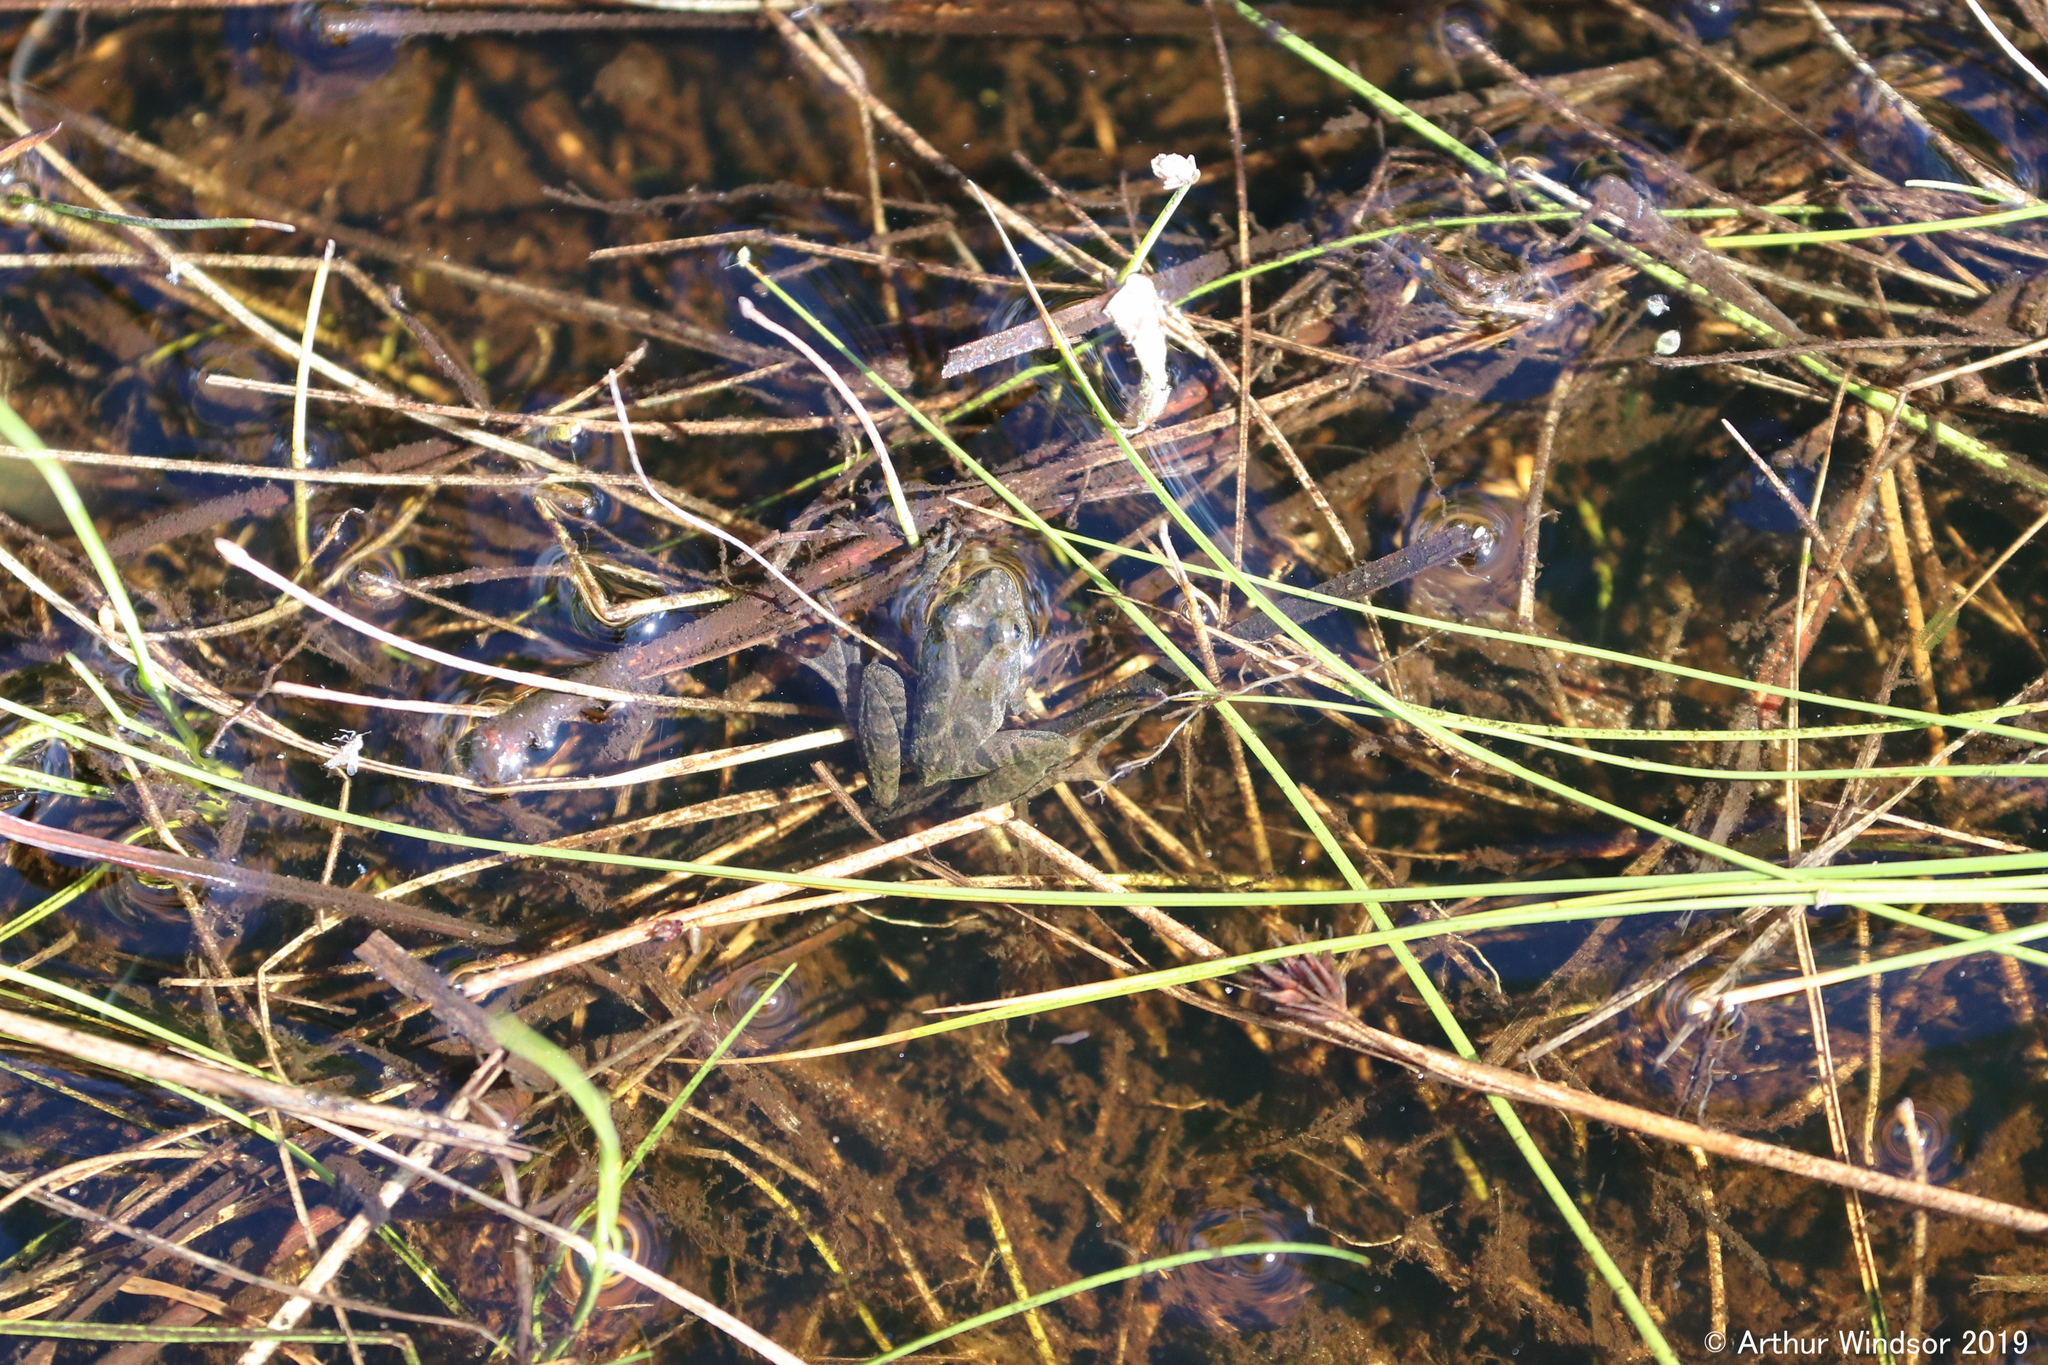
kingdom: Animalia
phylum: Chordata
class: Amphibia
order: Anura
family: Hylidae
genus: Acris
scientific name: Acris gryllus
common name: Southern cricket frog
